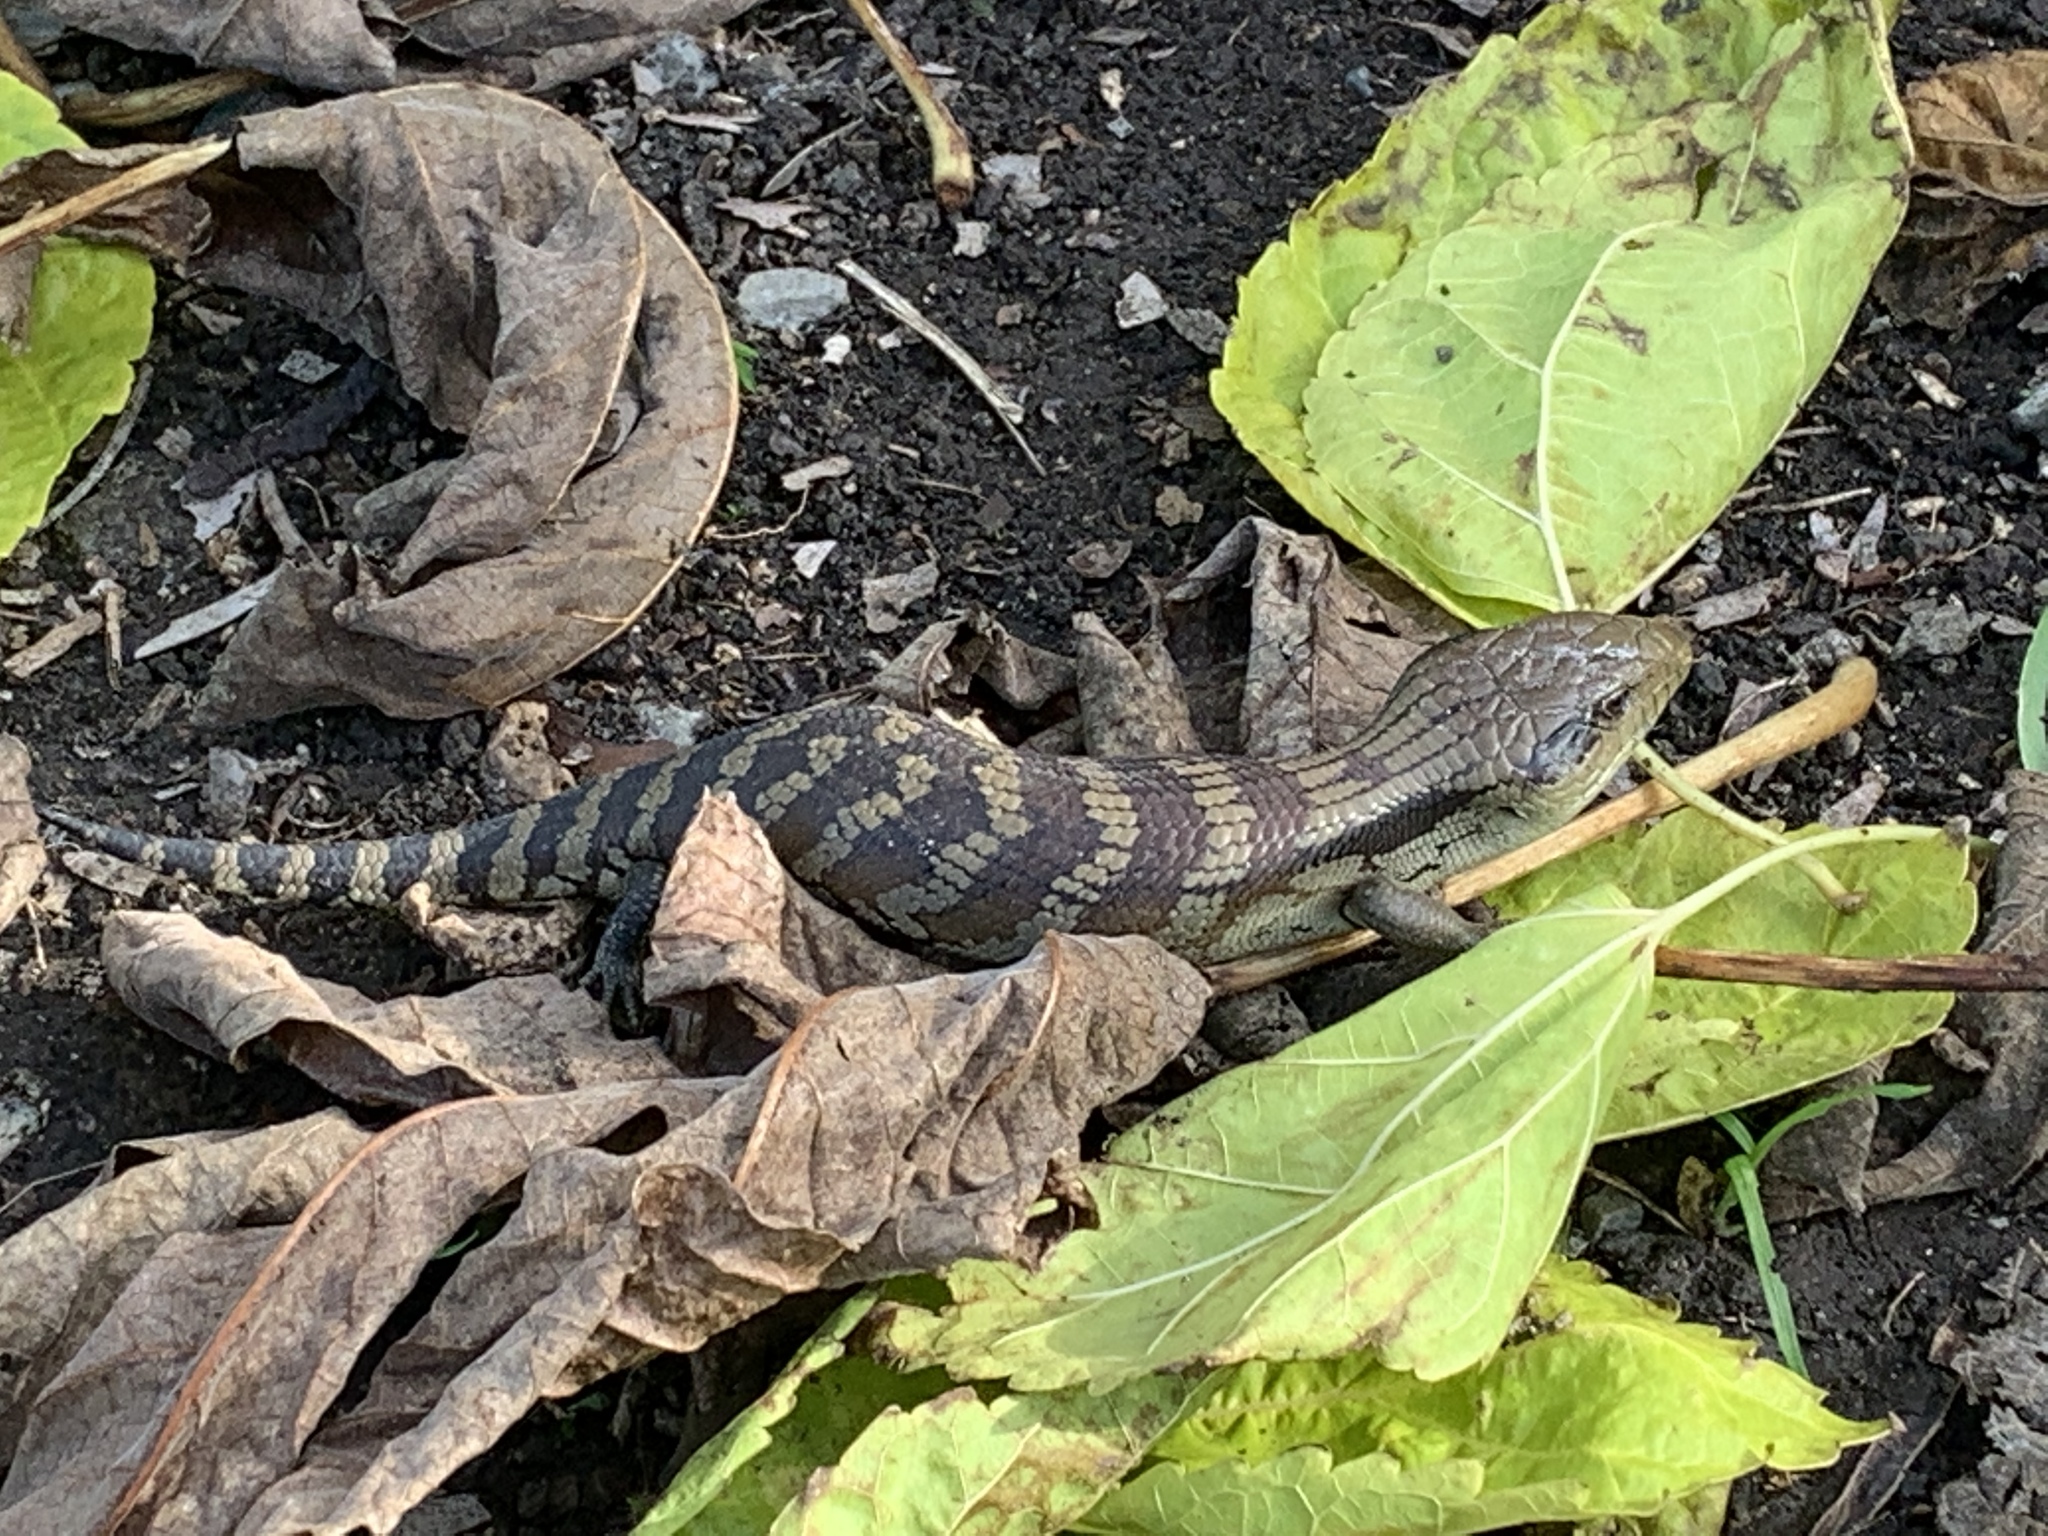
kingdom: Animalia
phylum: Chordata
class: Squamata
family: Scincidae
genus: Tiliqua
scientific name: Tiliqua scincoides
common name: Common bluetongue
